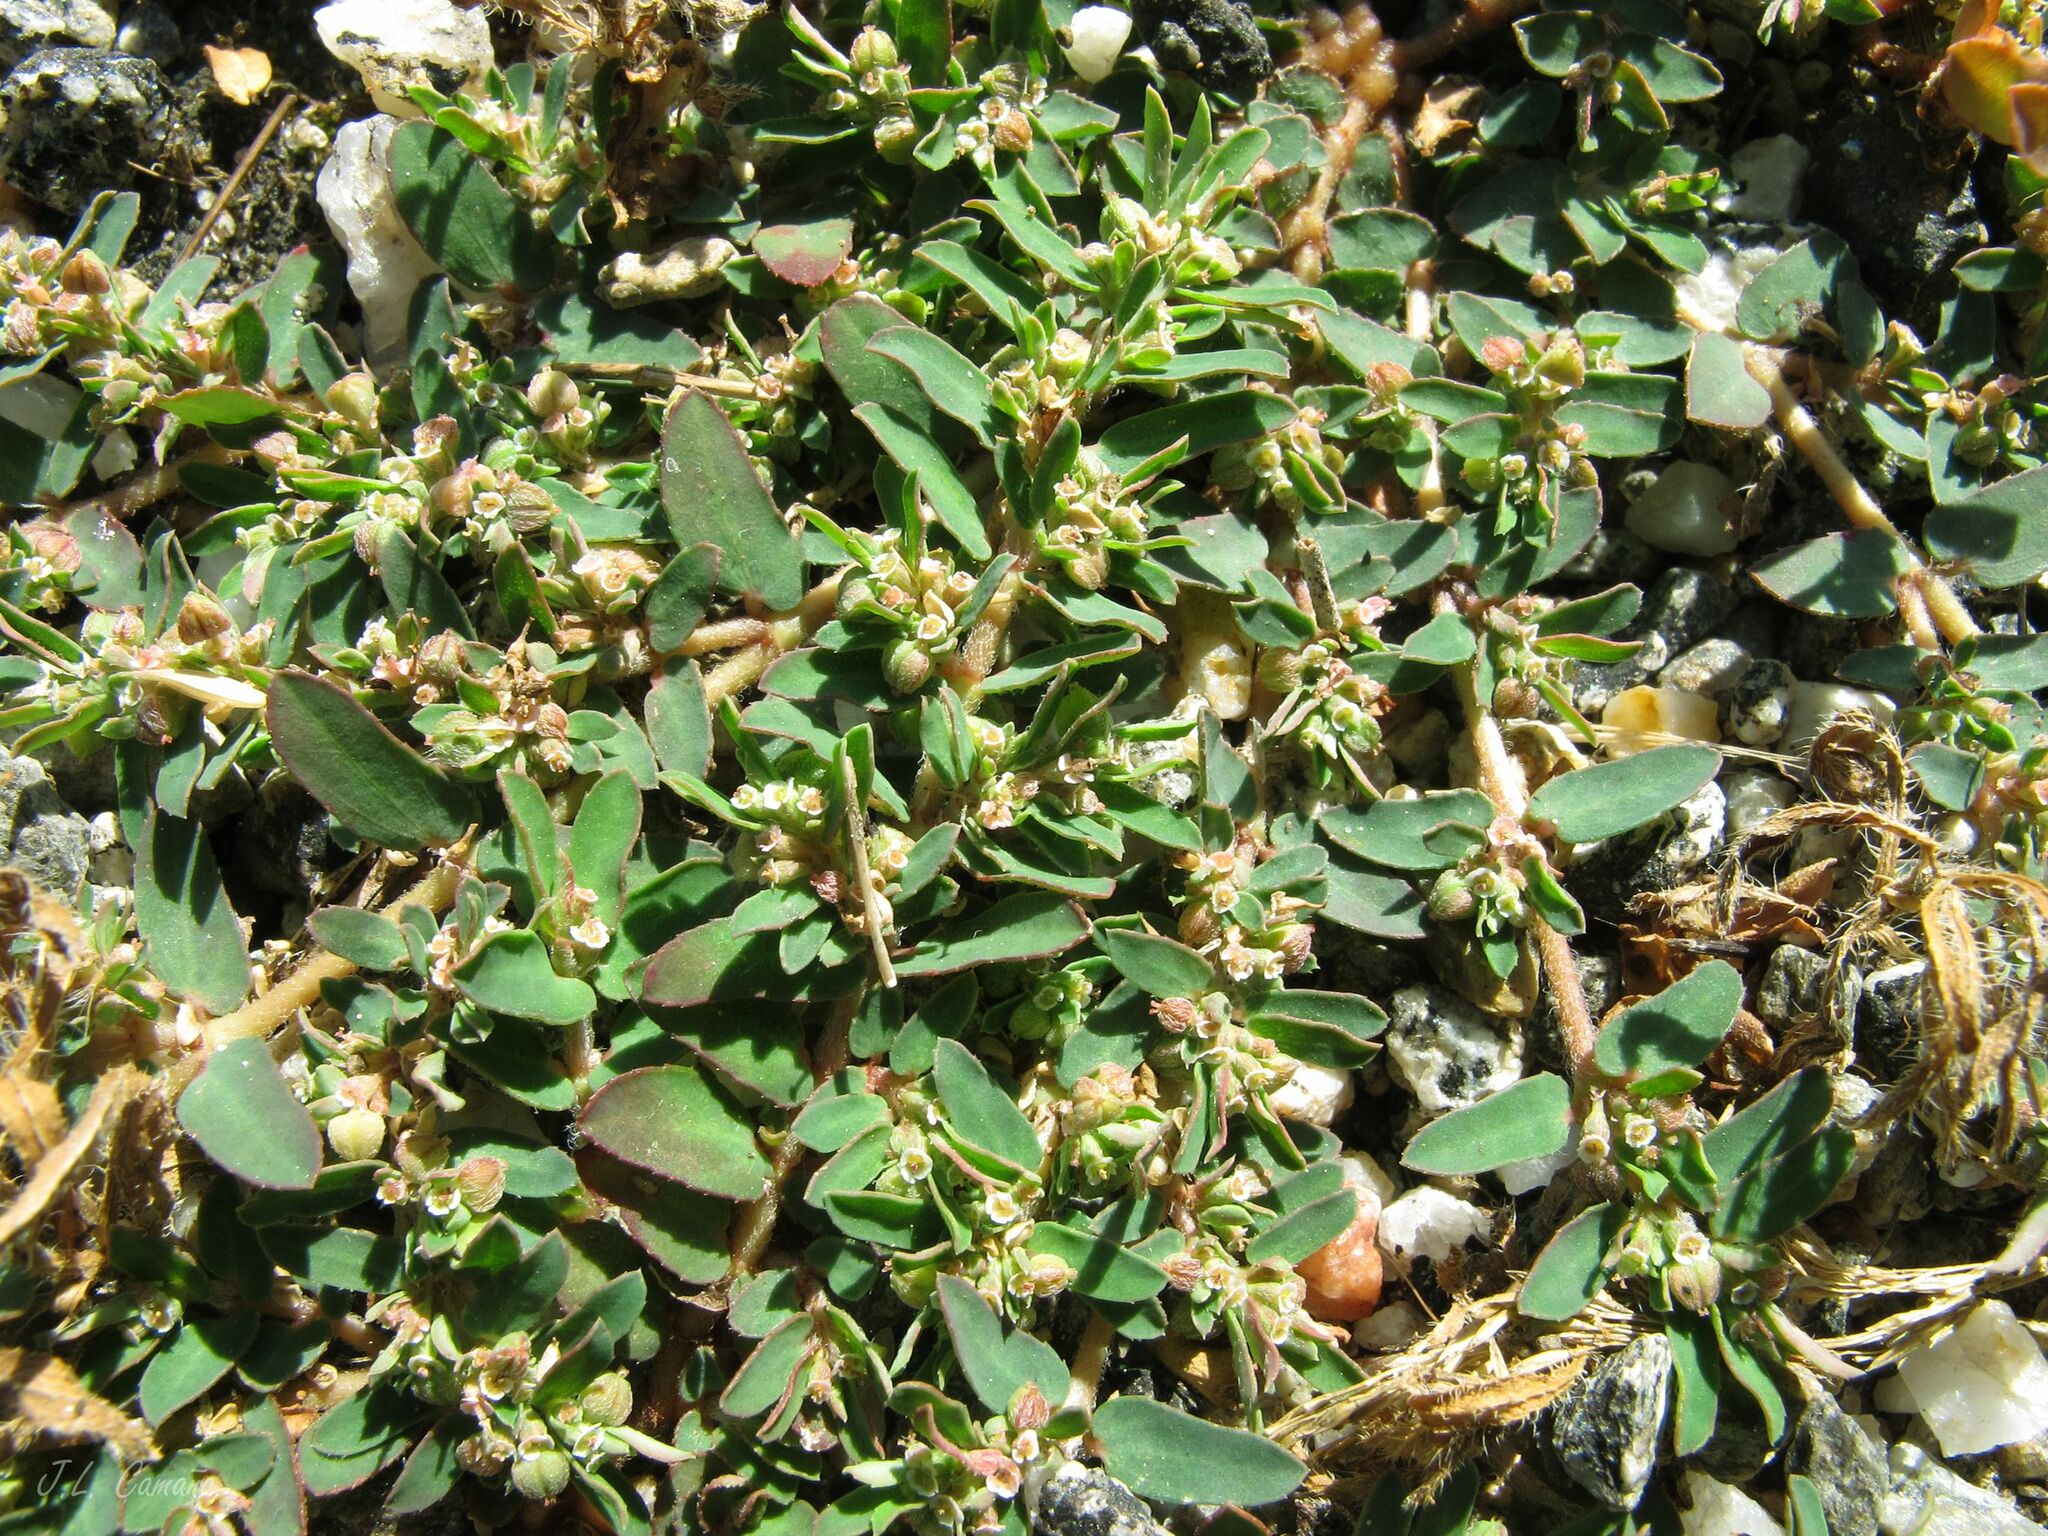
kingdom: Plantae
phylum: Tracheophyta
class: Magnoliopsida
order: Malpighiales
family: Euphorbiaceae
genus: Euphorbia
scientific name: Euphorbia maculata
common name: Spotted spurge
